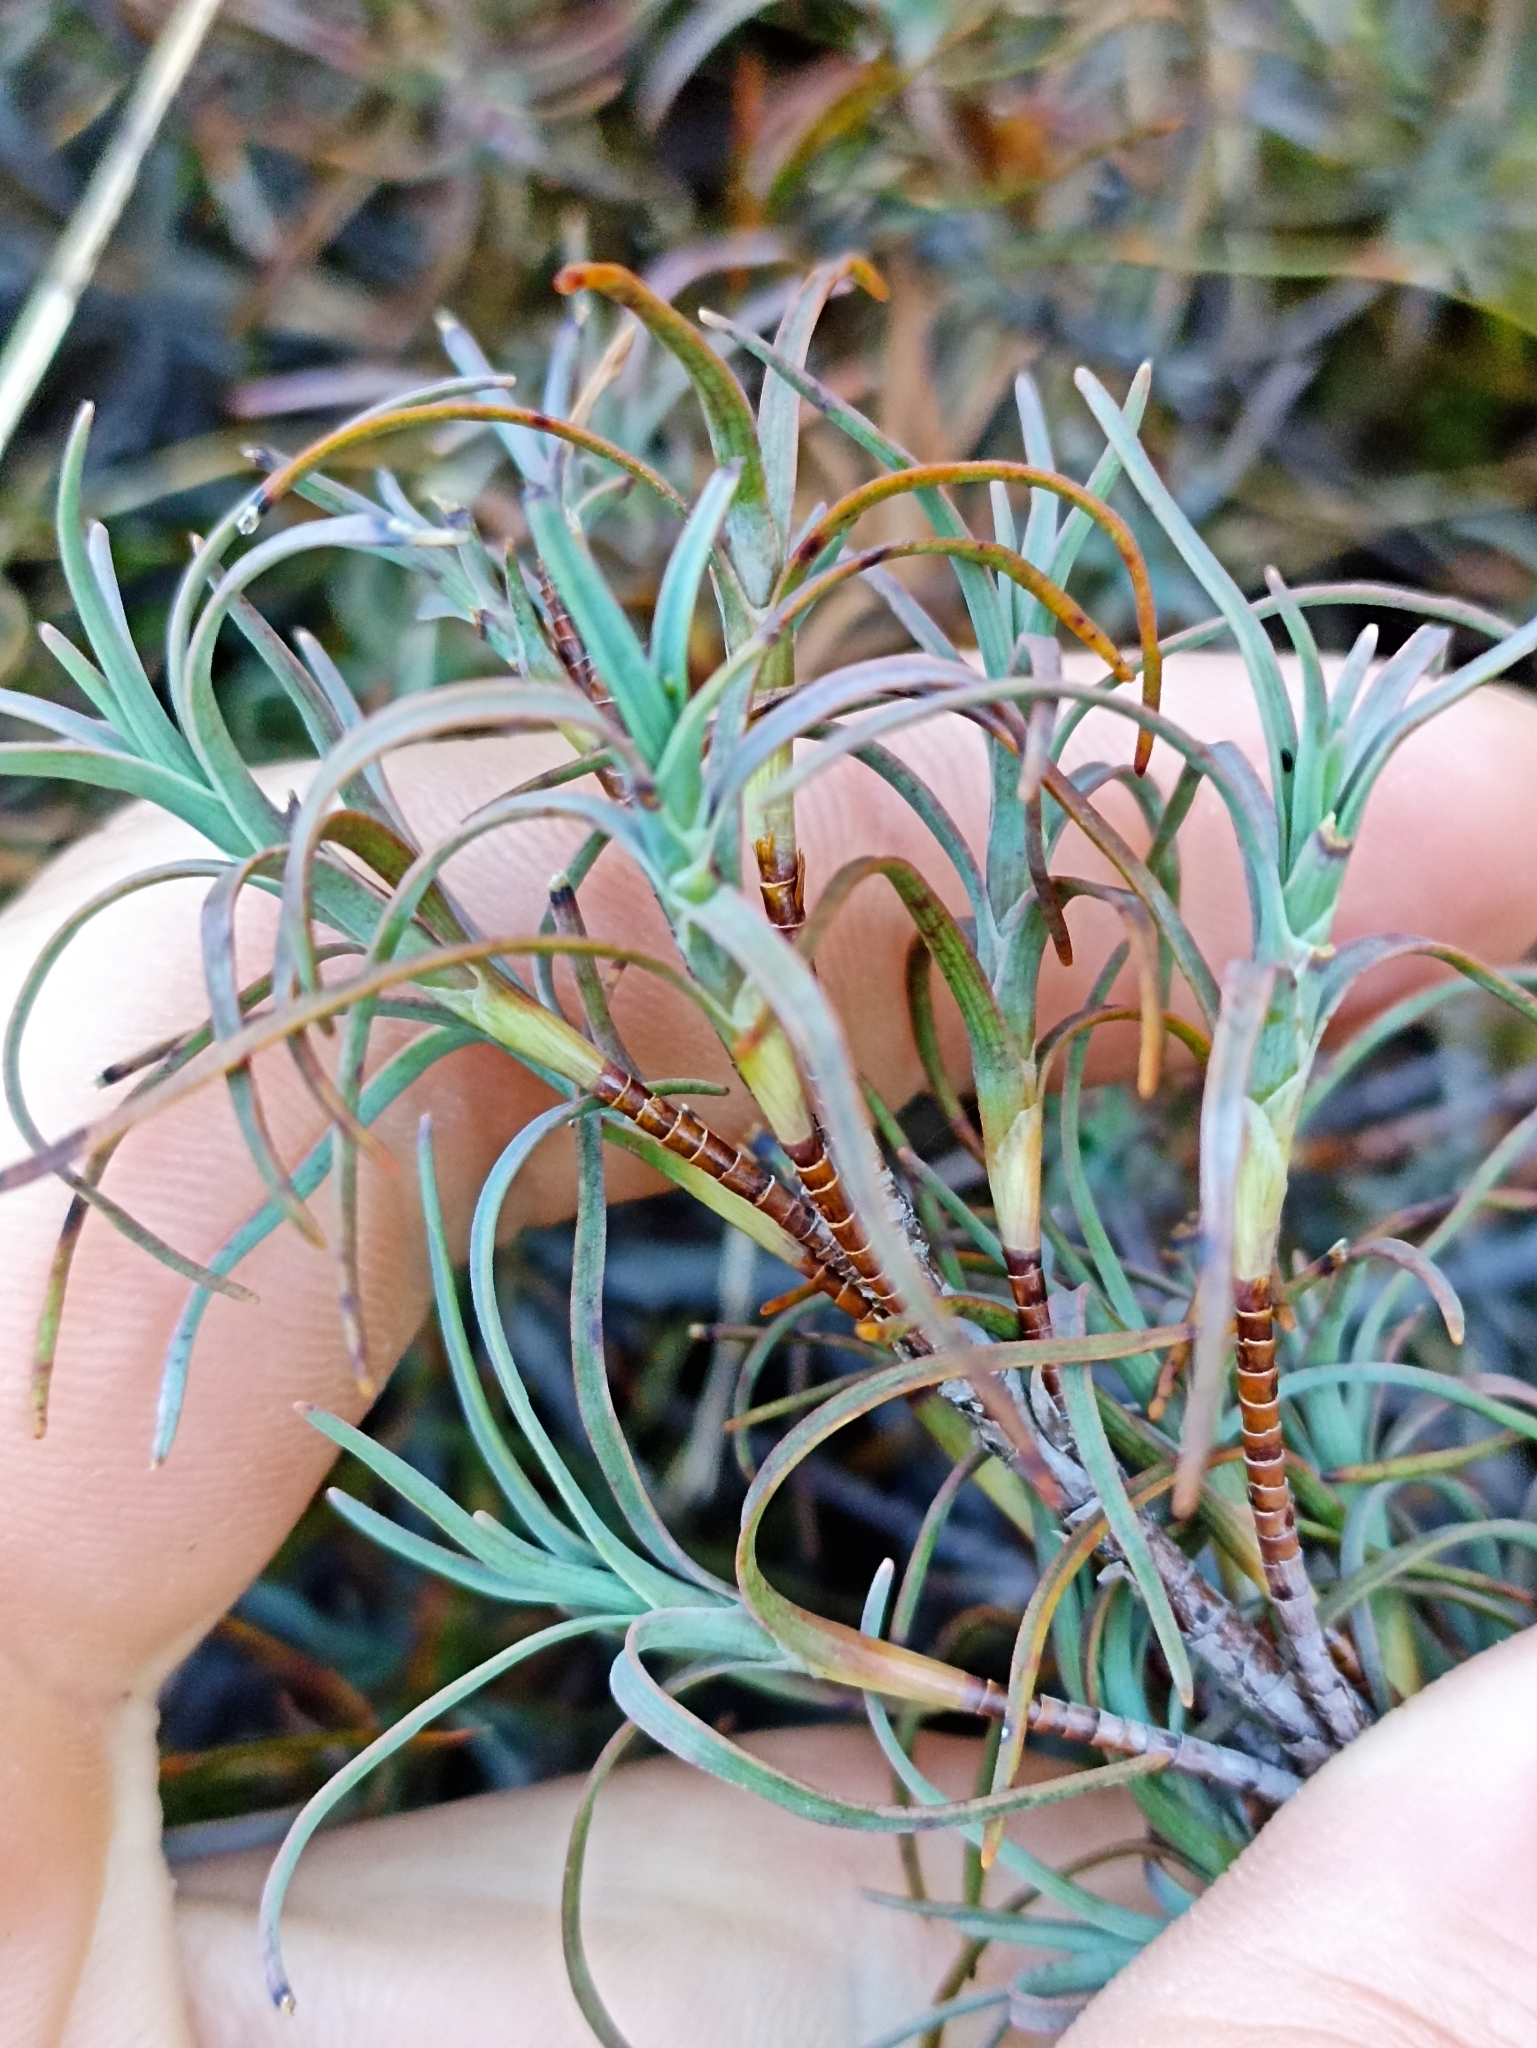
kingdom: Plantae
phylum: Tracheophyta
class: Magnoliopsida
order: Ericales
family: Ericaceae
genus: Dracophyllum
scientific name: Dracophyllum recurvum
